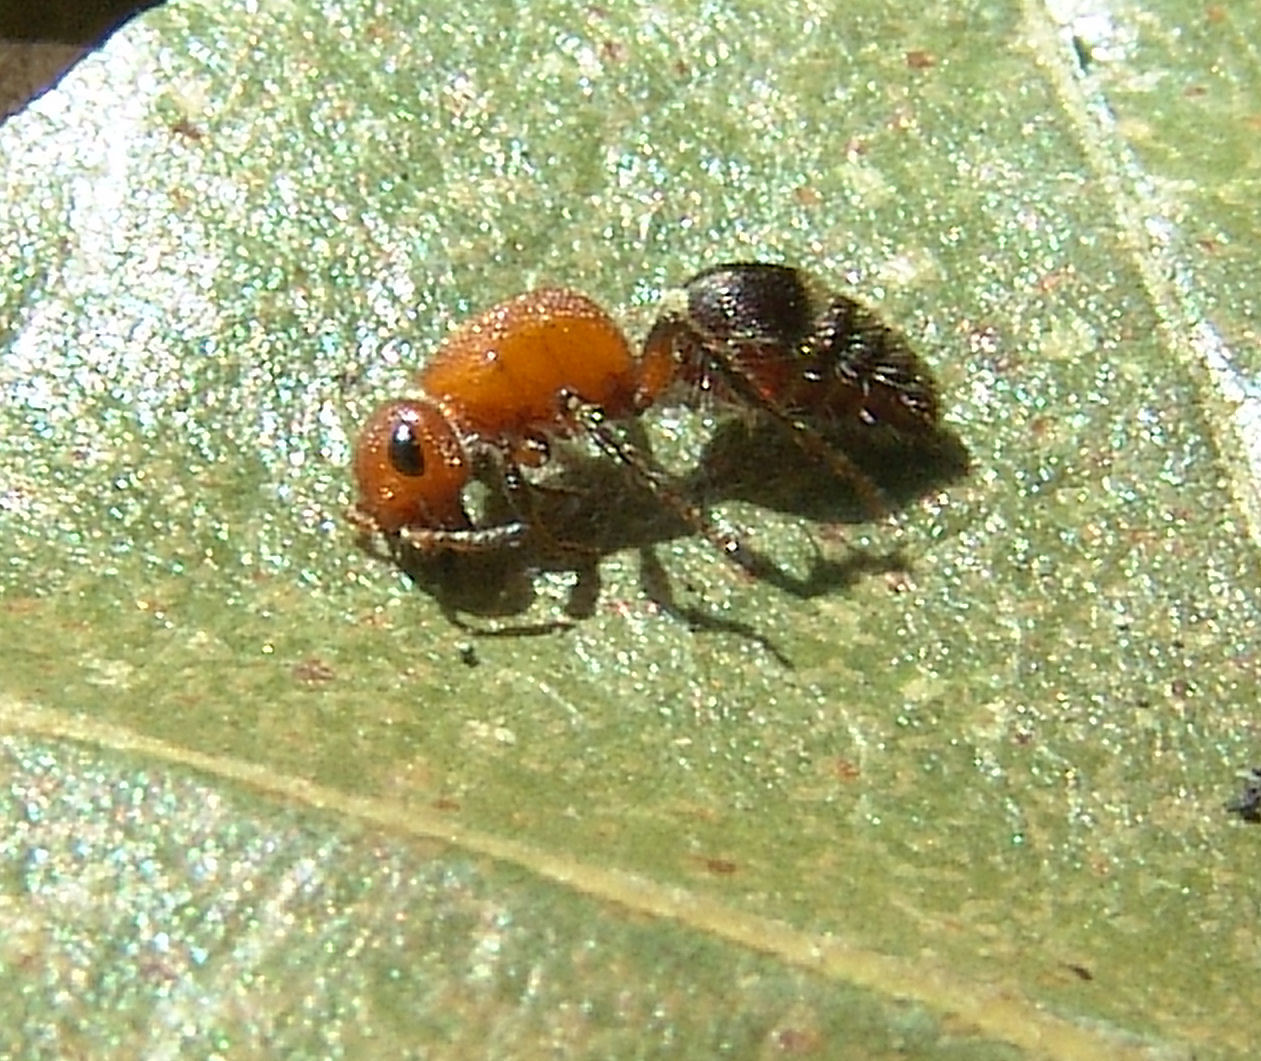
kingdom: Animalia
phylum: Arthropoda
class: Insecta
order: Hymenoptera
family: Mutillidae
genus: Timulla
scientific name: Timulla
